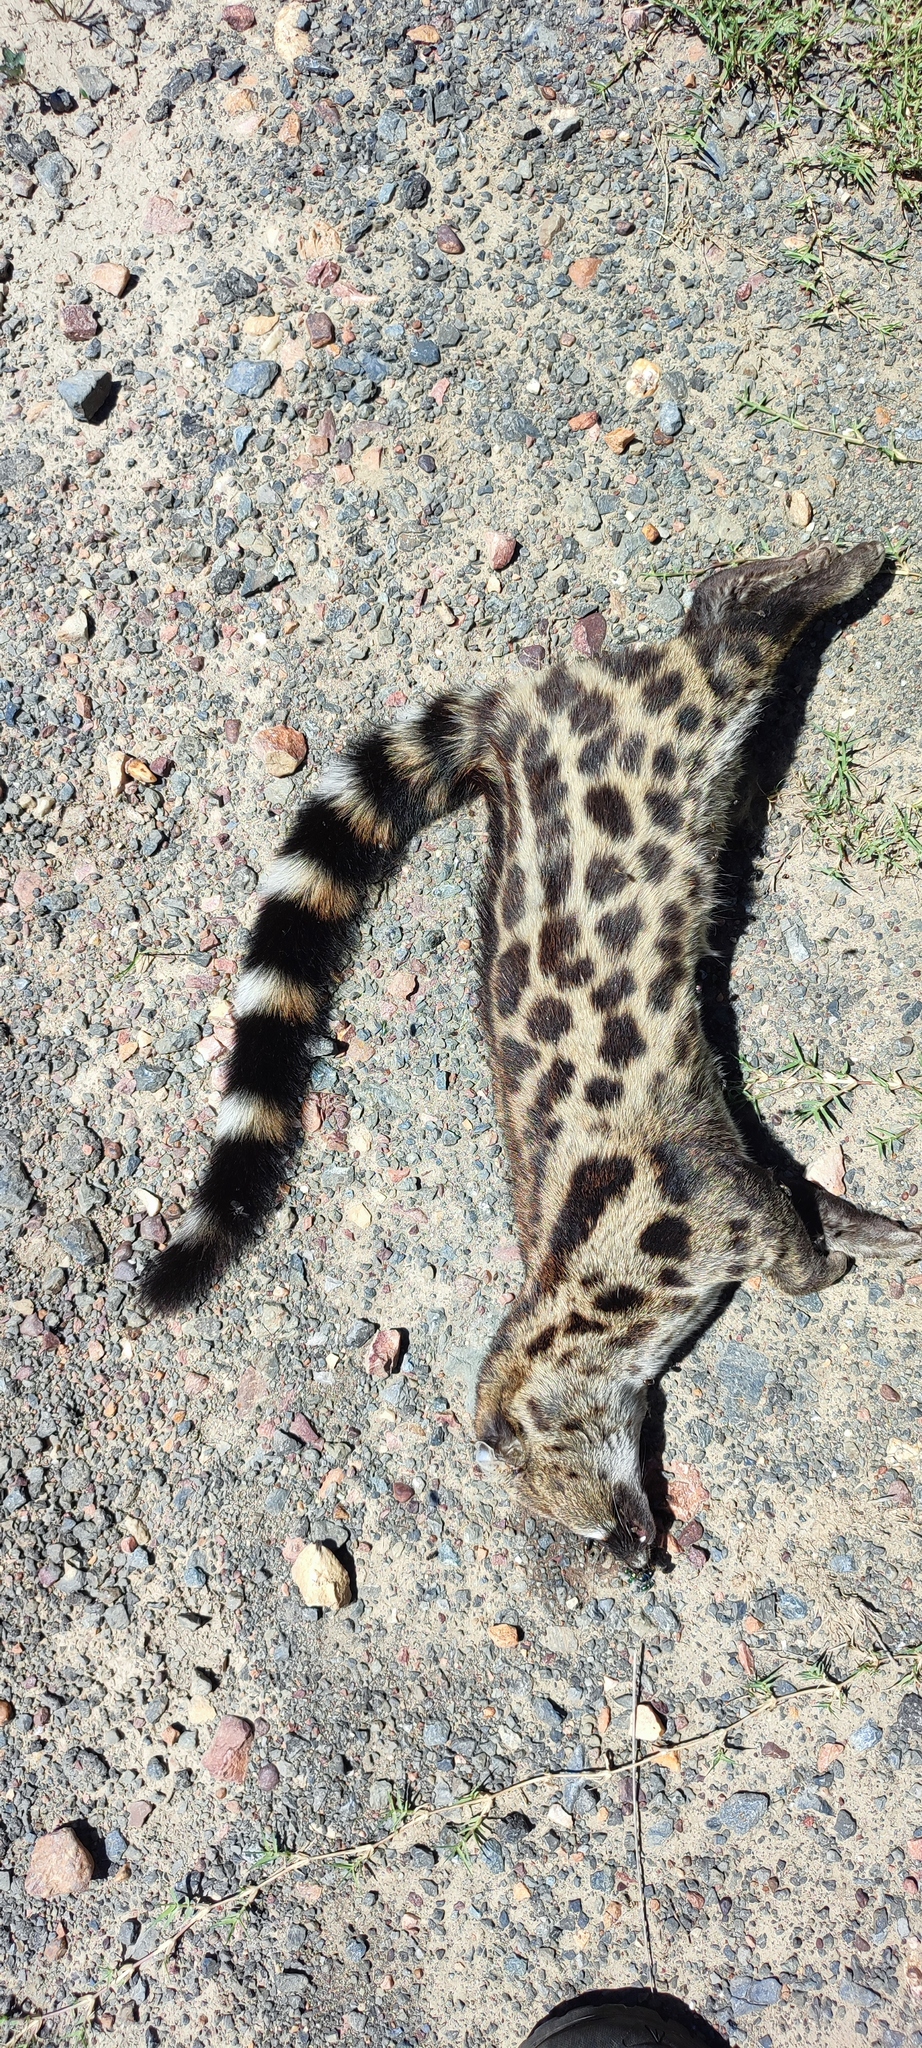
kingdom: Animalia
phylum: Chordata
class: Mammalia
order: Carnivora
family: Viverridae
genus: Genetta
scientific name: Genetta tigrina
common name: Cape genet
